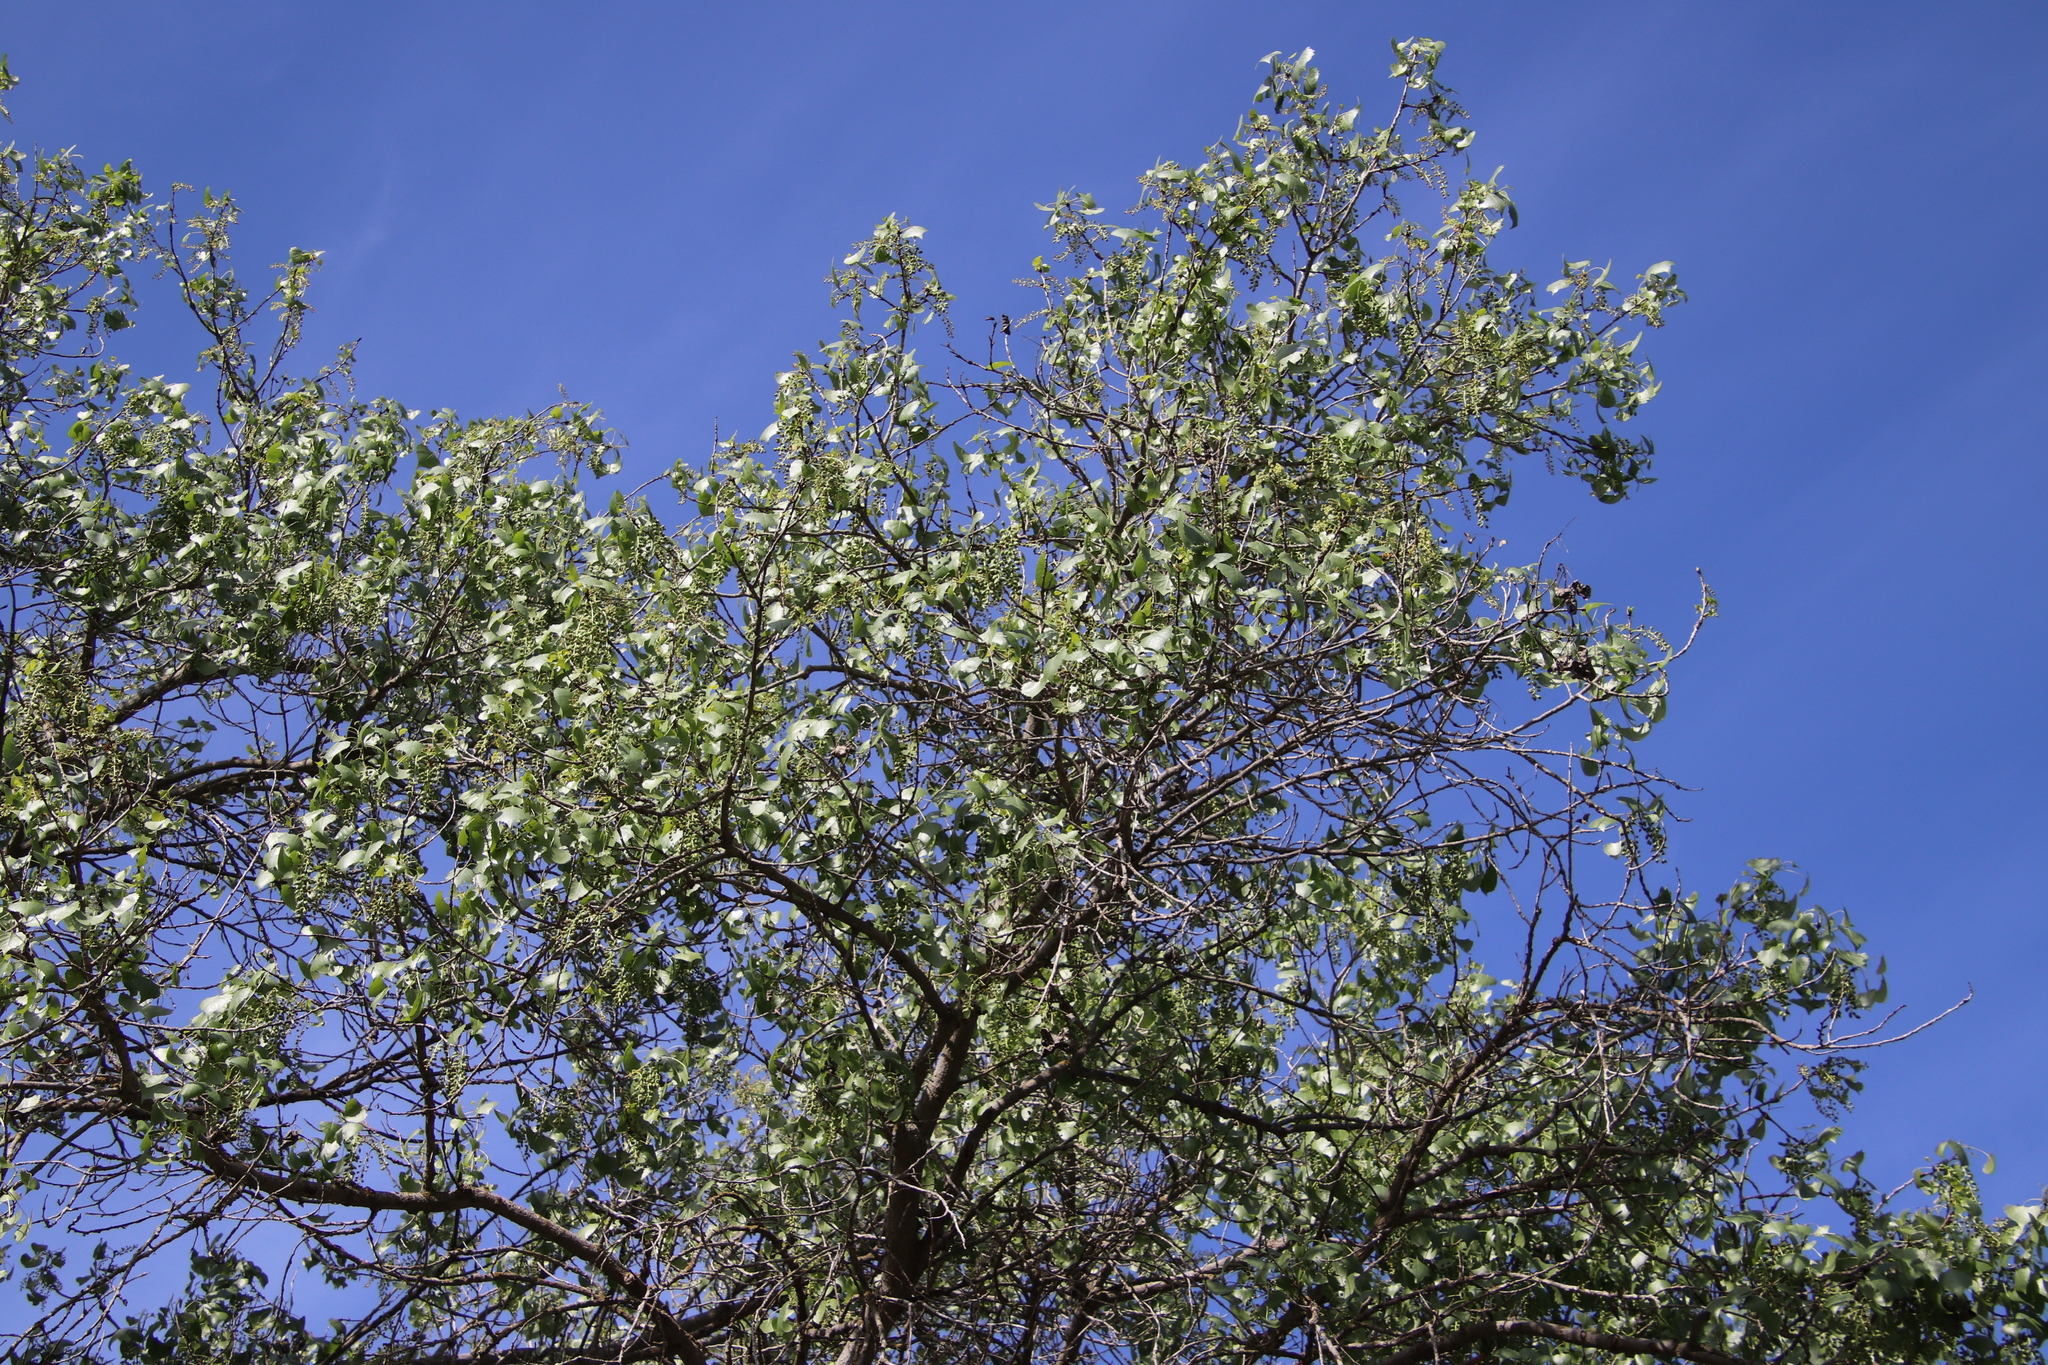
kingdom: Plantae
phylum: Tracheophyta
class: Magnoliopsida
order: Malpighiales
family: Salicaceae
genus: Populus
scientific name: Populus fremontii
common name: Fremont's cottonwood
